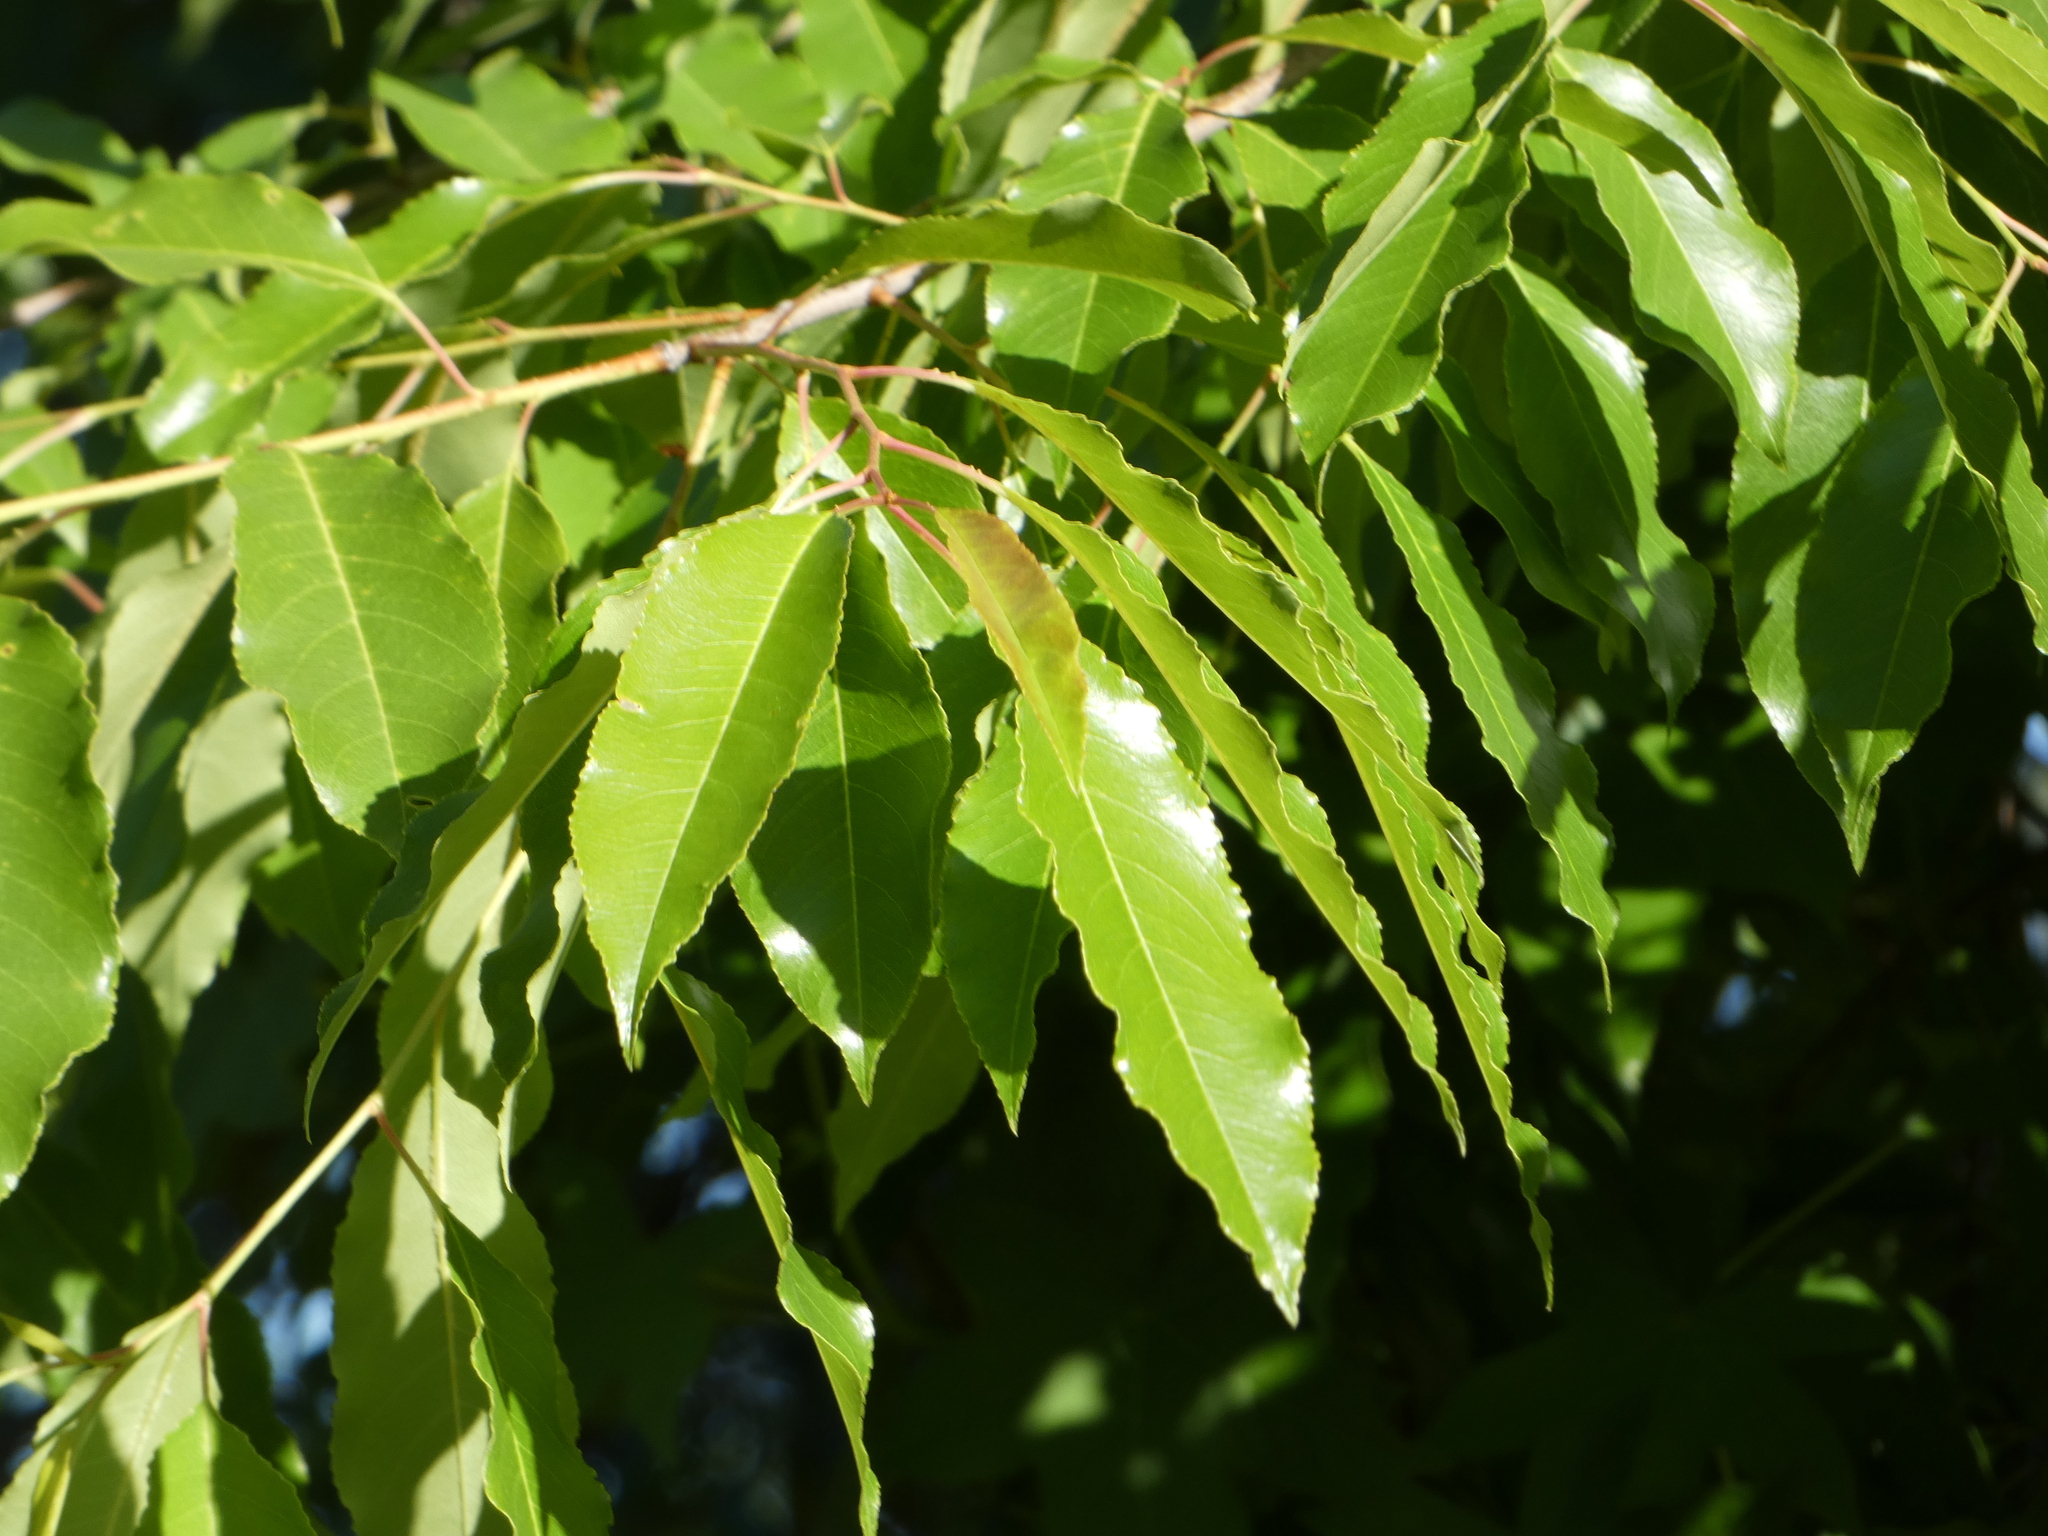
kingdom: Plantae
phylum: Tracheophyta
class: Magnoliopsida
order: Rosales
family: Rosaceae
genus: Prunus
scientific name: Prunus serotina
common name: Black cherry
